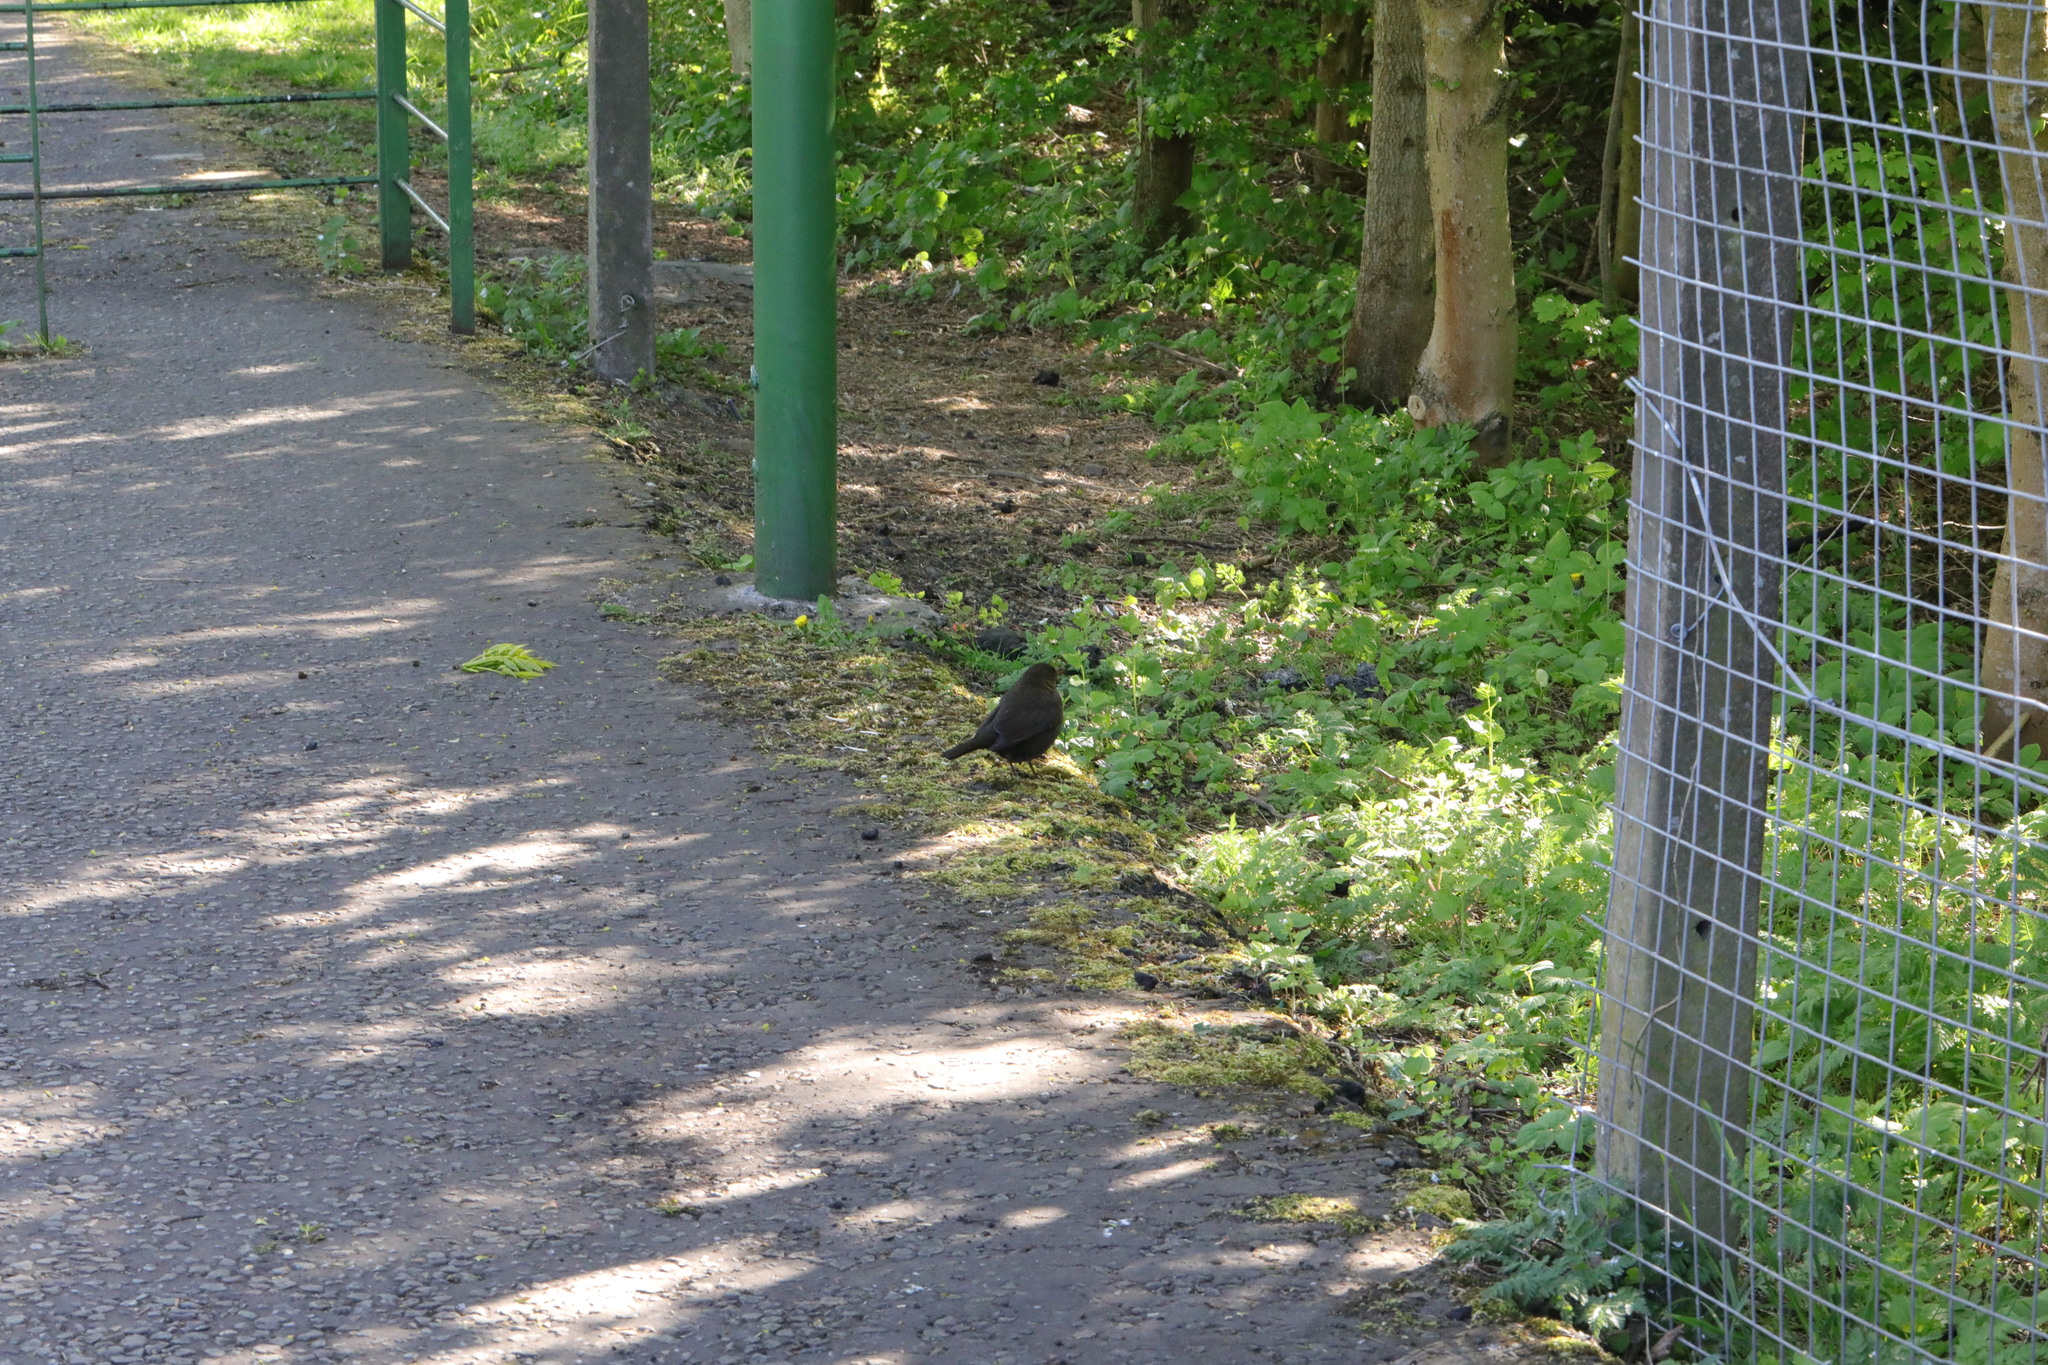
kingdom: Animalia
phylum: Chordata
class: Aves
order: Passeriformes
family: Turdidae
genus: Turdus
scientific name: Turdus merula
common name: Common blackbird
